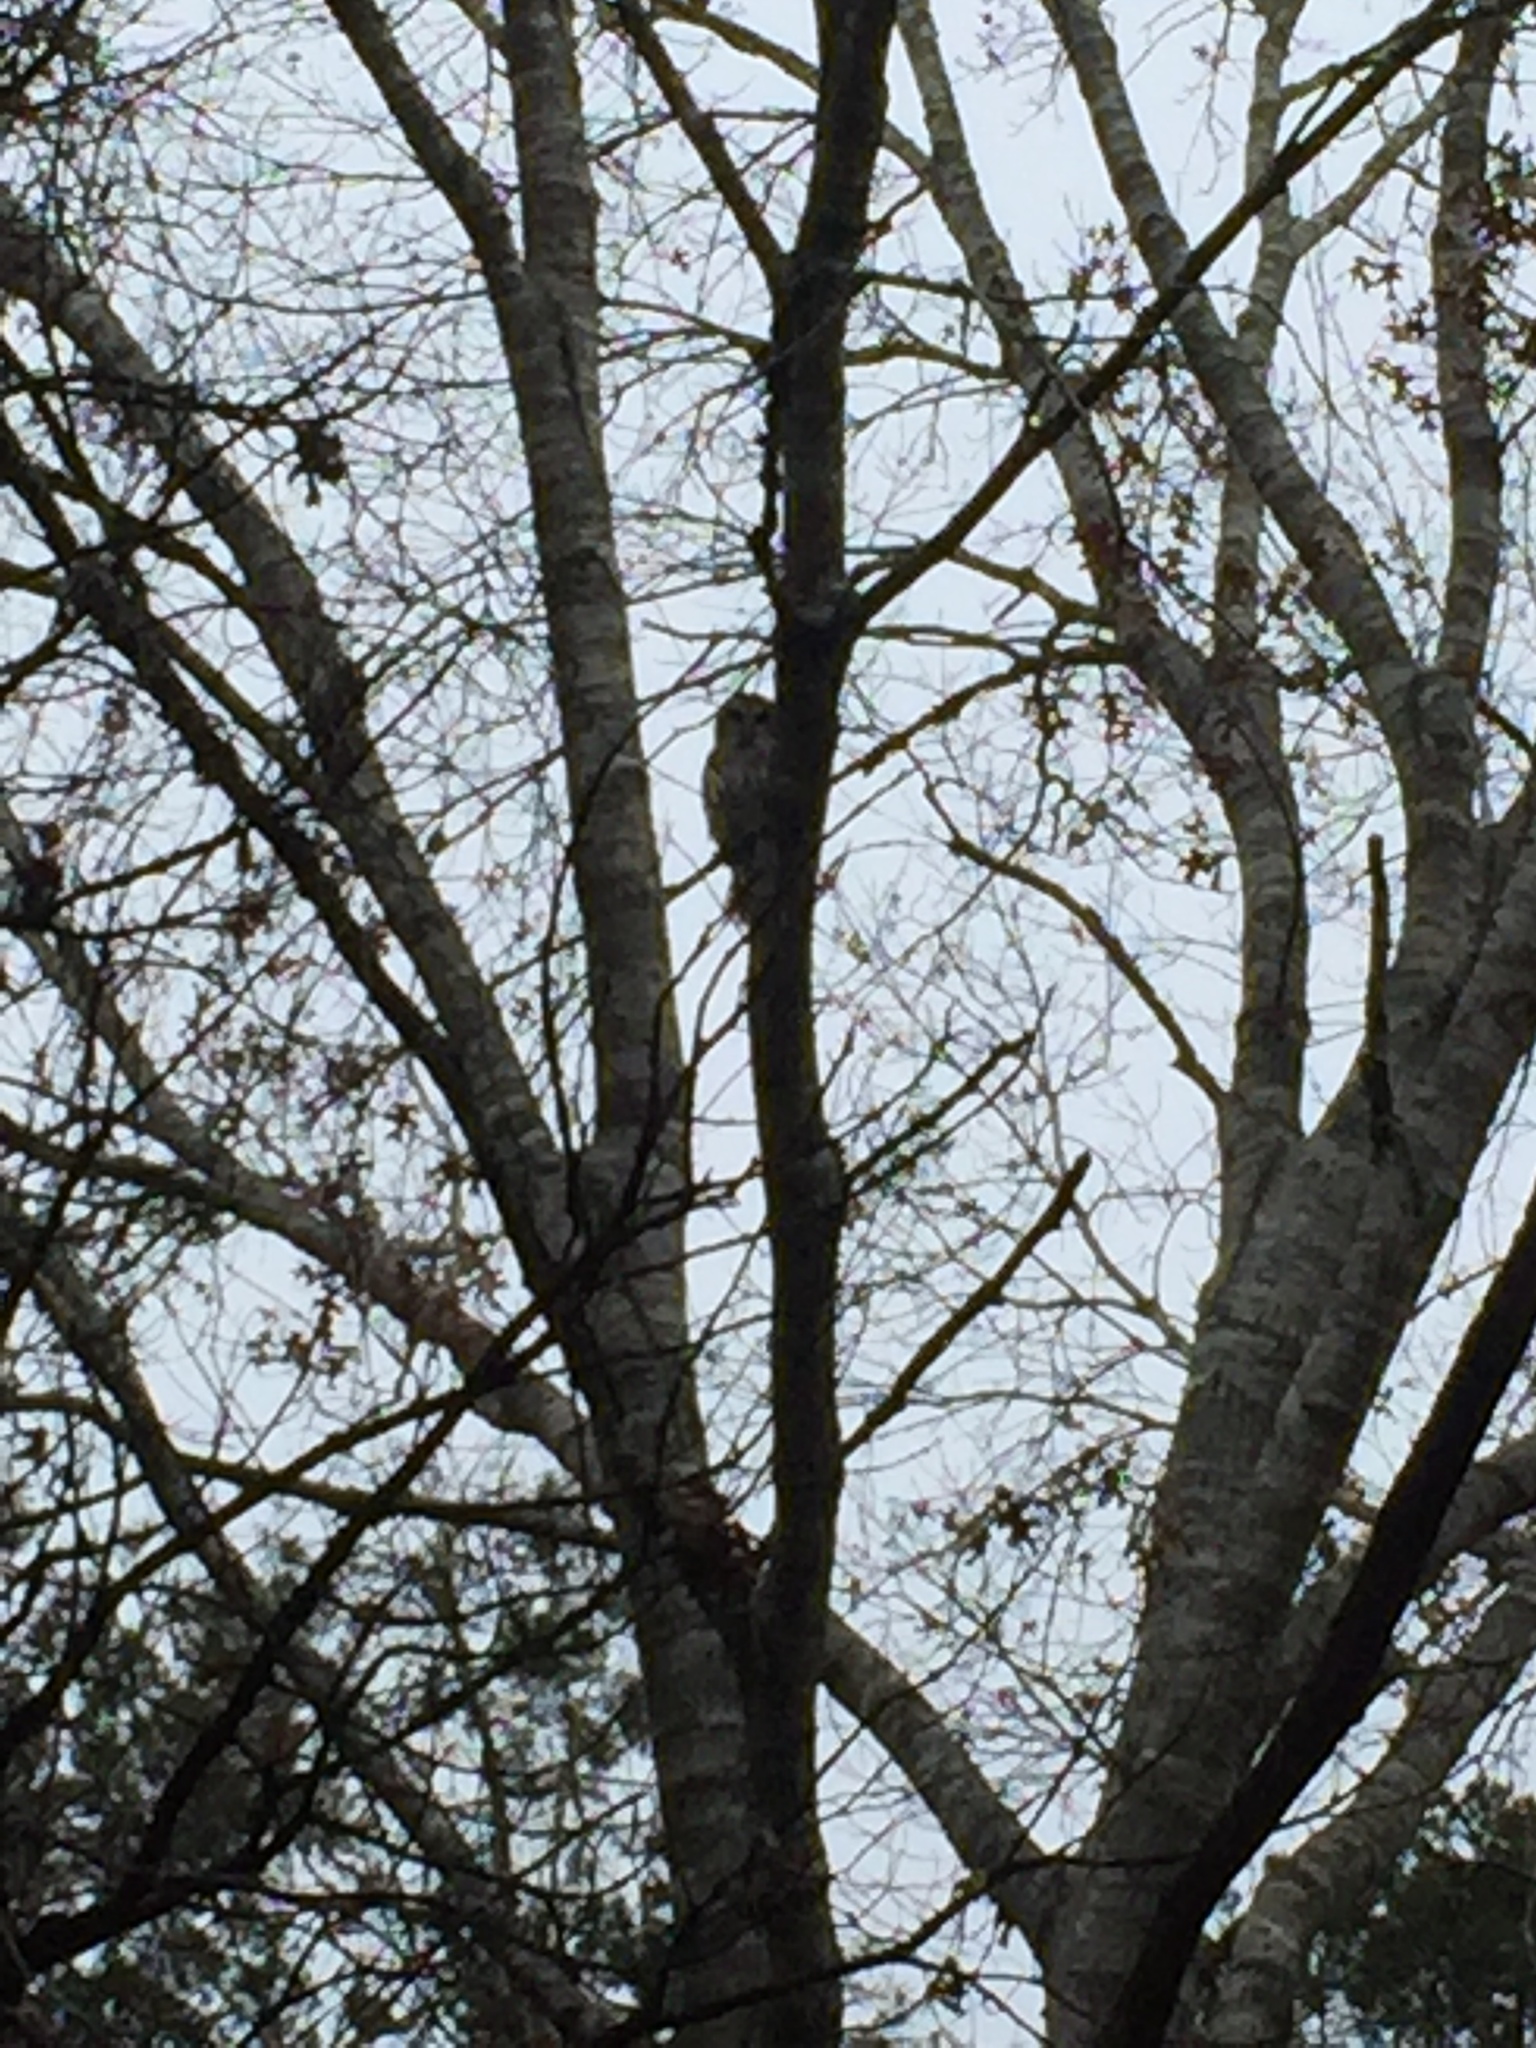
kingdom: Animalia
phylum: Chordata
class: Aves
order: Strigiformes
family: Strigidae
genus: Strix
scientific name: Strix varia
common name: Barred owl
